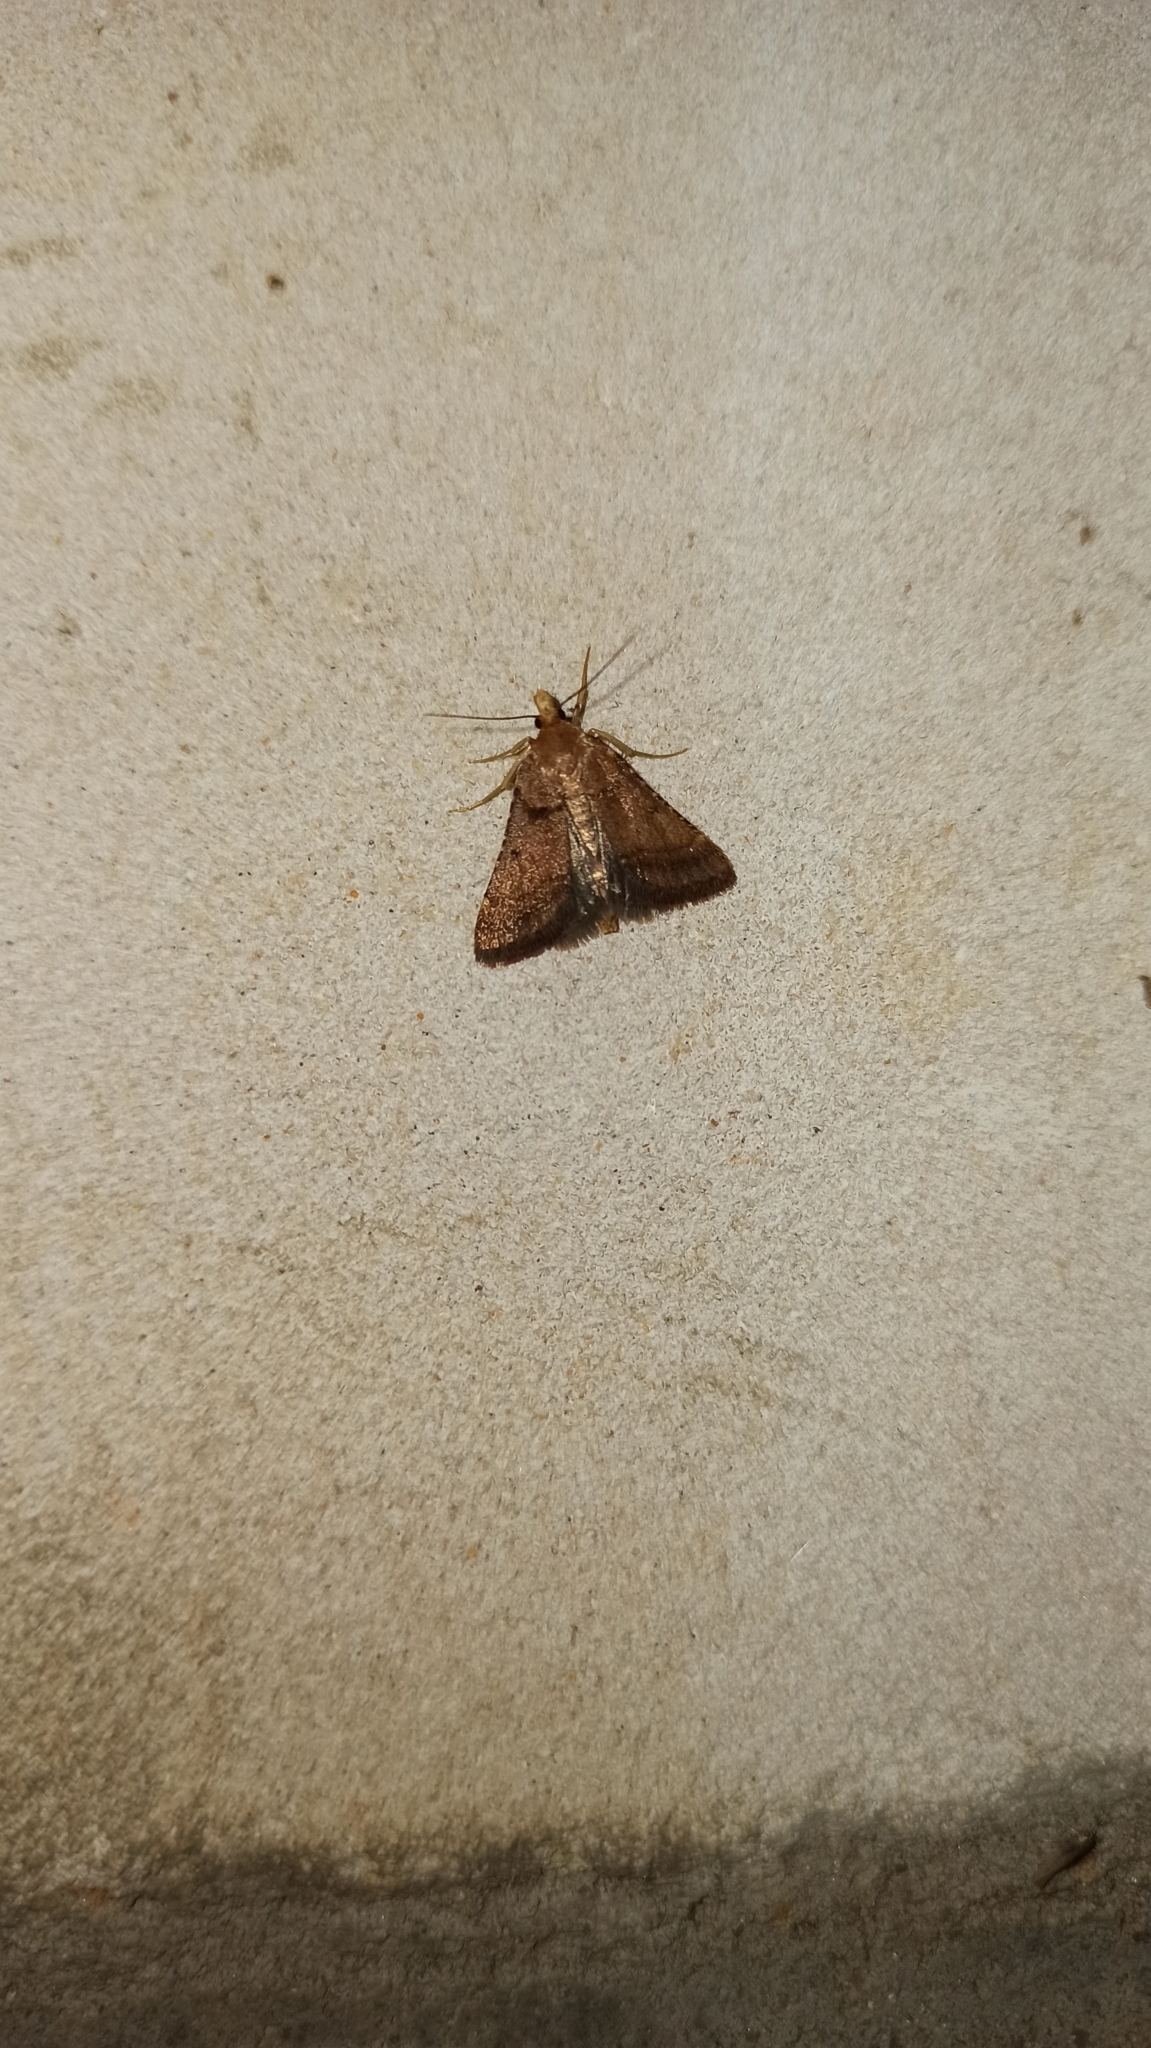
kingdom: Animalia
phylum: Arthropoda
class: Insecta
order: Lepidoptera
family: Pyralidae
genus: Stemmatophora
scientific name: Stemmatophora brunnealis
